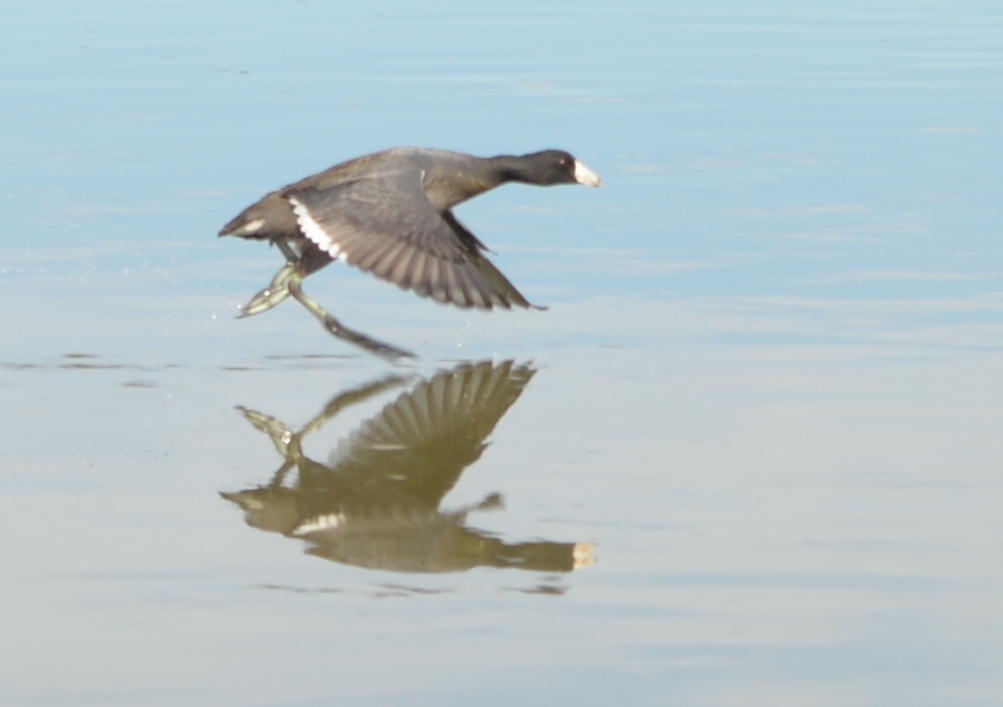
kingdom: Animalia
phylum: Chordata
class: Aves
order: Gruiformes
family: Rallidae
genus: Fulica
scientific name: Fulica americana
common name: American coot
